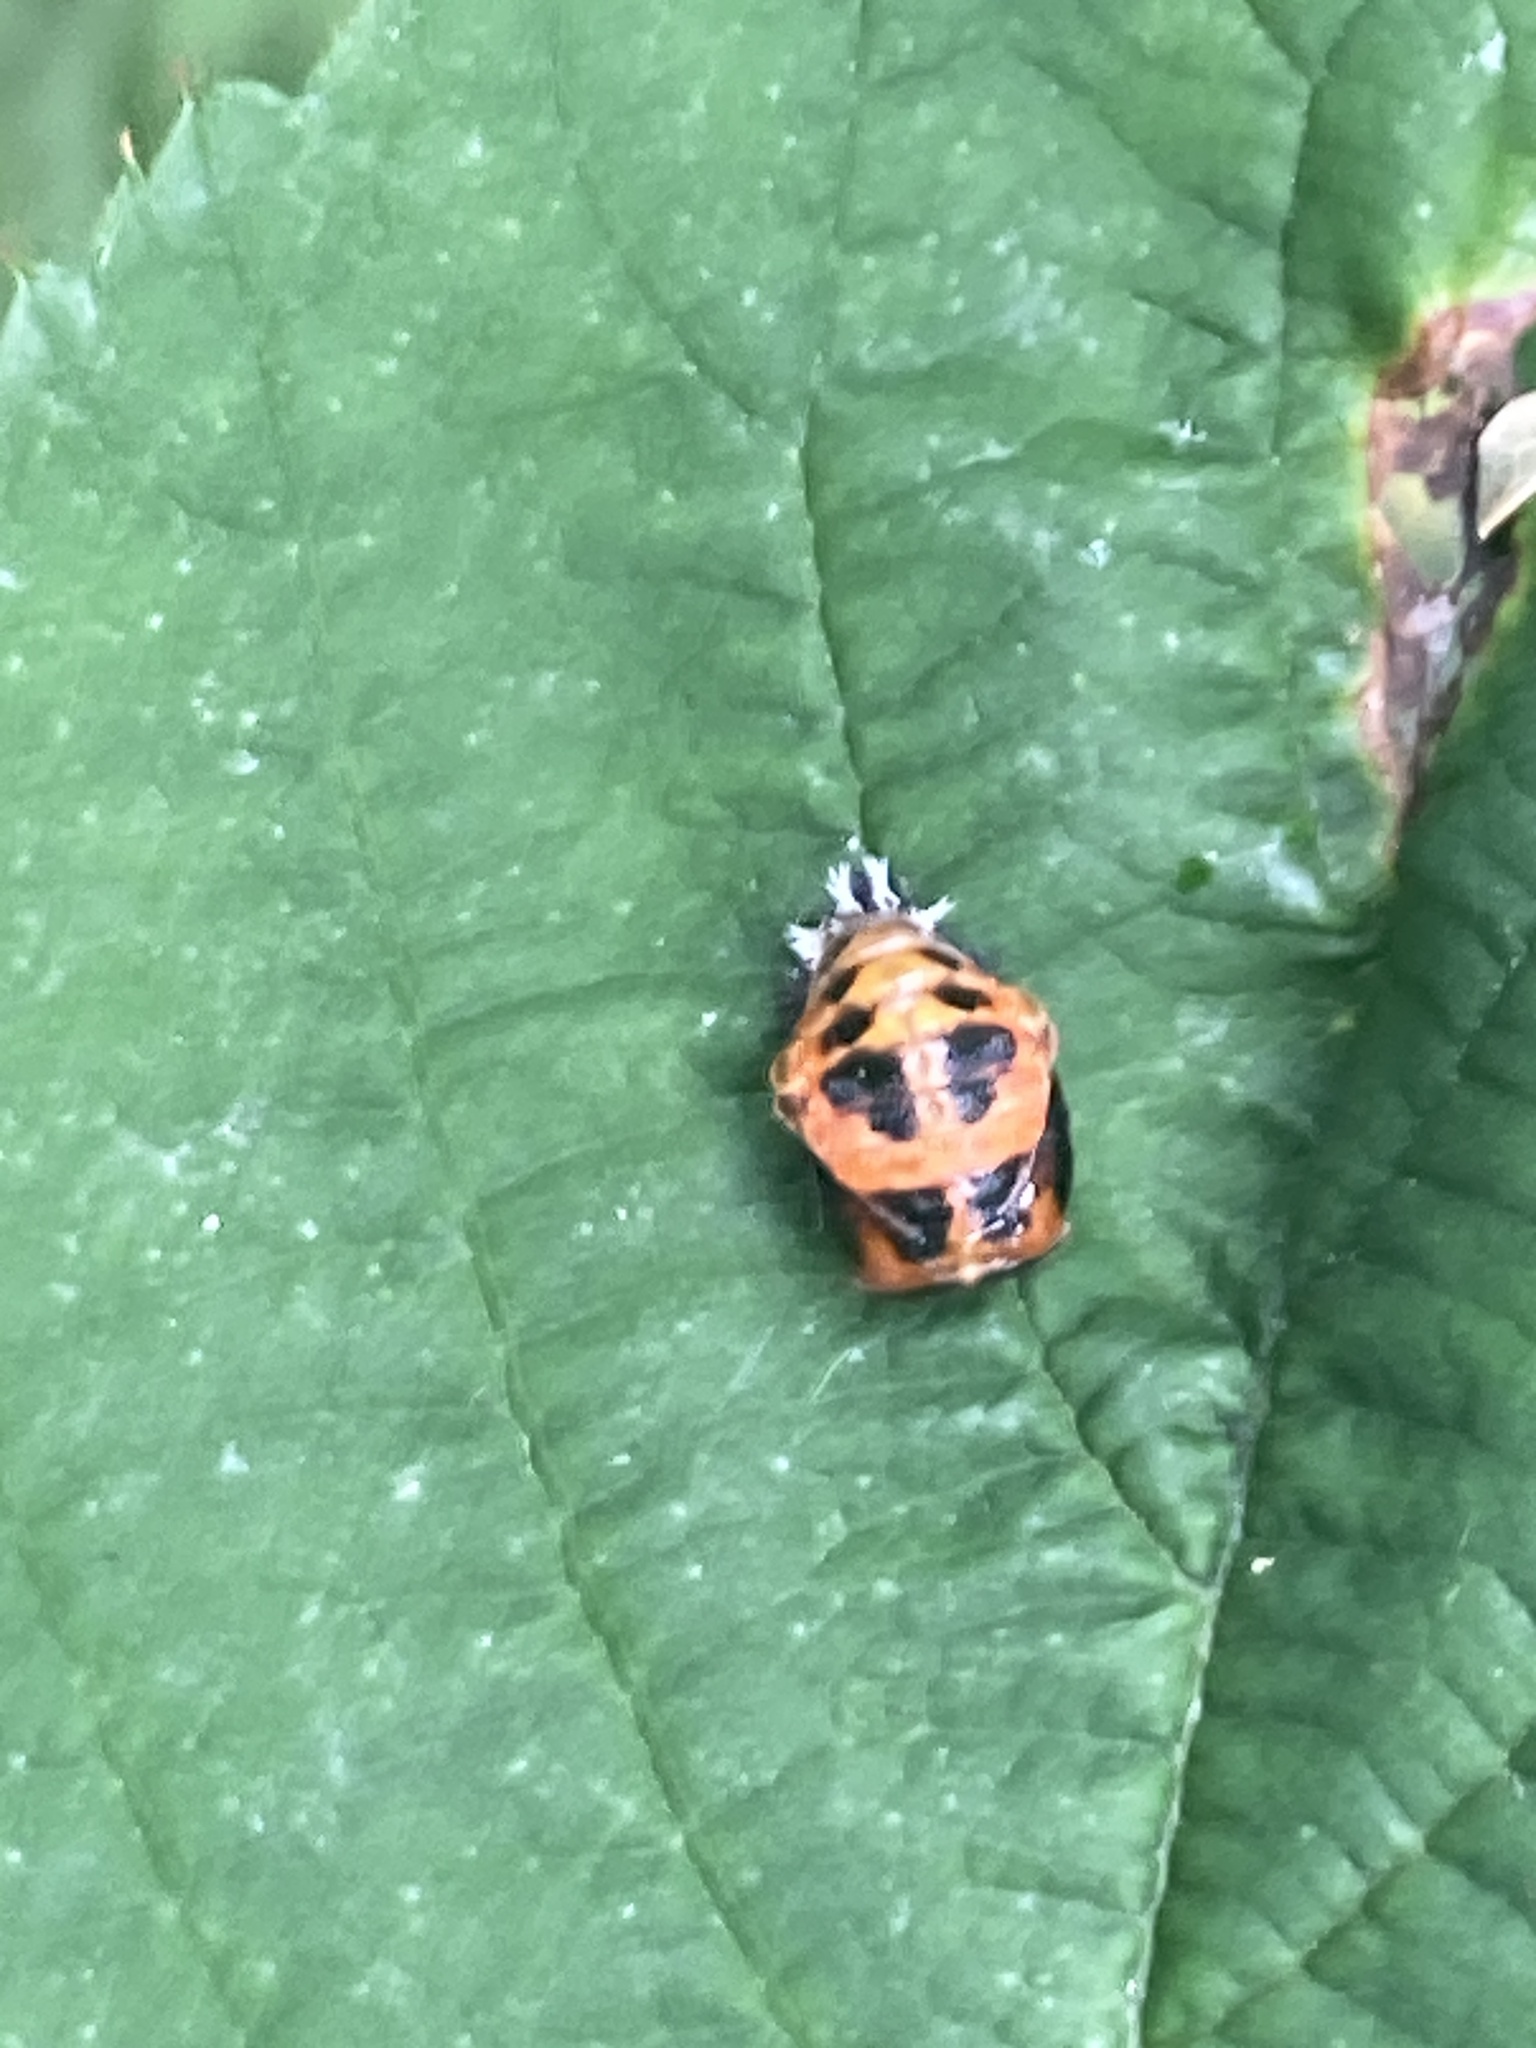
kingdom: Animalia
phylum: Arthropoda
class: Insecta
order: Coleoptera
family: Coccinellidae
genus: Harmonia
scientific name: Harmonia axyridis
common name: Harlequin ladybird
